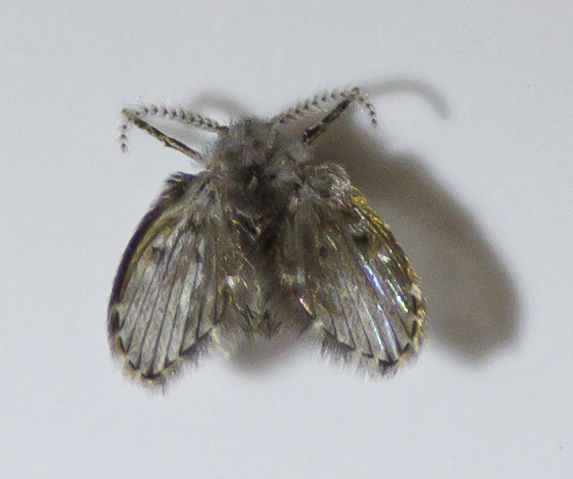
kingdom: Animalia
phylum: Arthropoda
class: Insecta
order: Diptera
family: Psychodidae
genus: Clogmia
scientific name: Clogmia albipunctatus
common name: White-spotted moth fly
